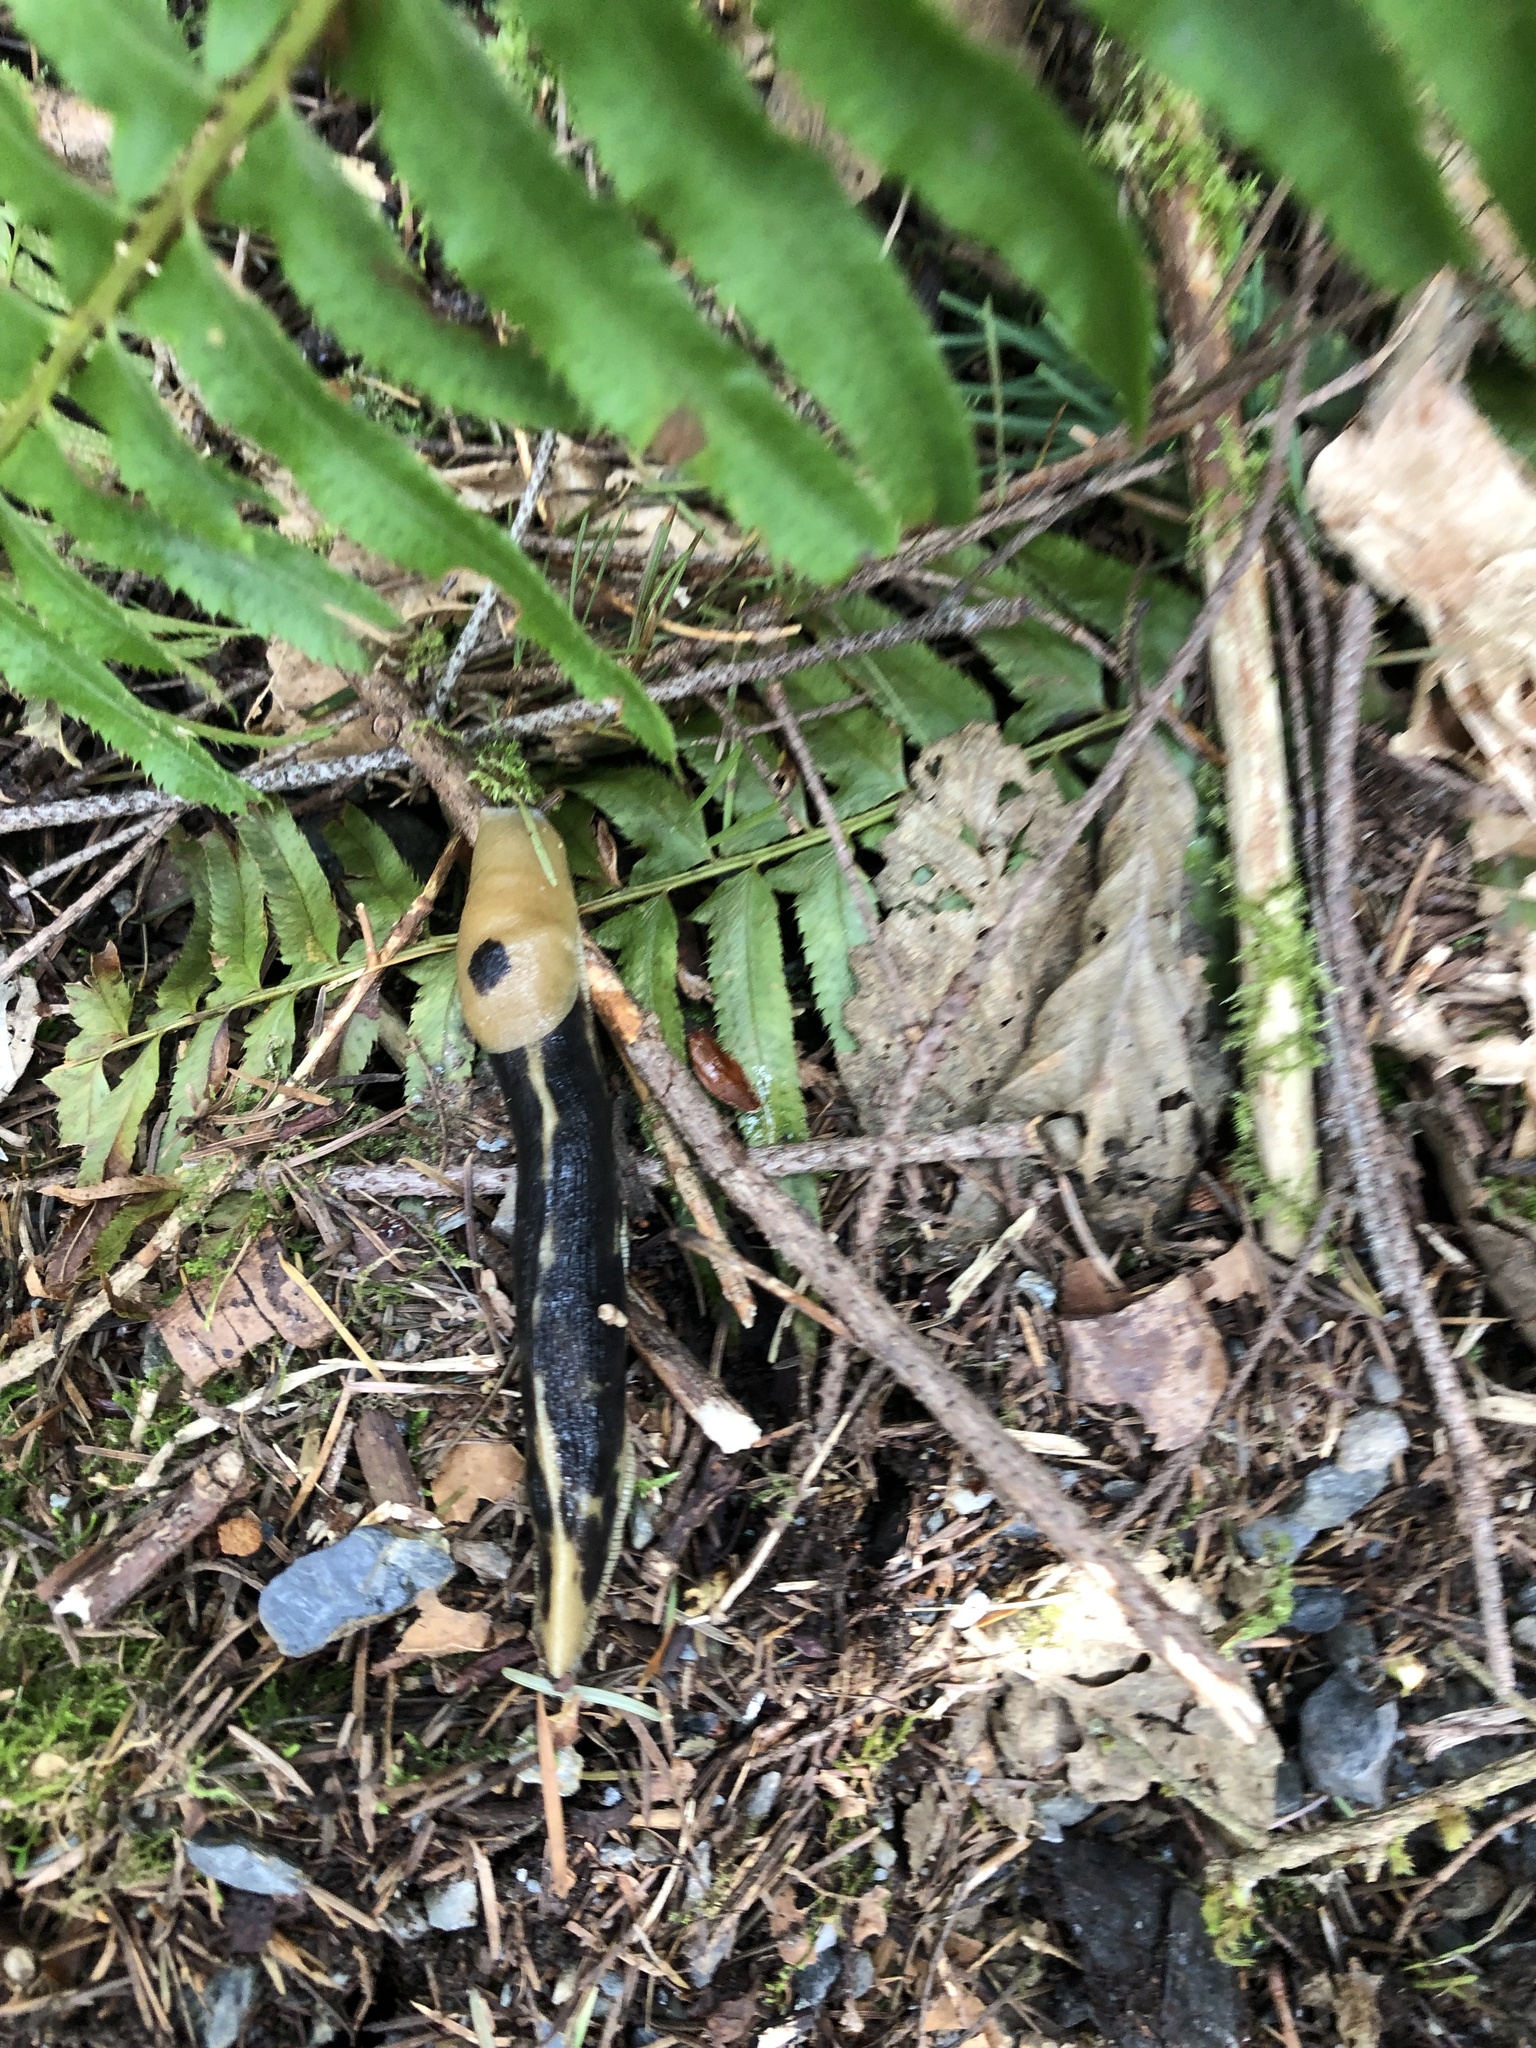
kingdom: Animalia
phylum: Mollusca
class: Gastropoda
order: Stylommatophora
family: Ariolimacidae
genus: Ariolimax
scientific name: Ariolimax columbianus
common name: Pacific banana slug
